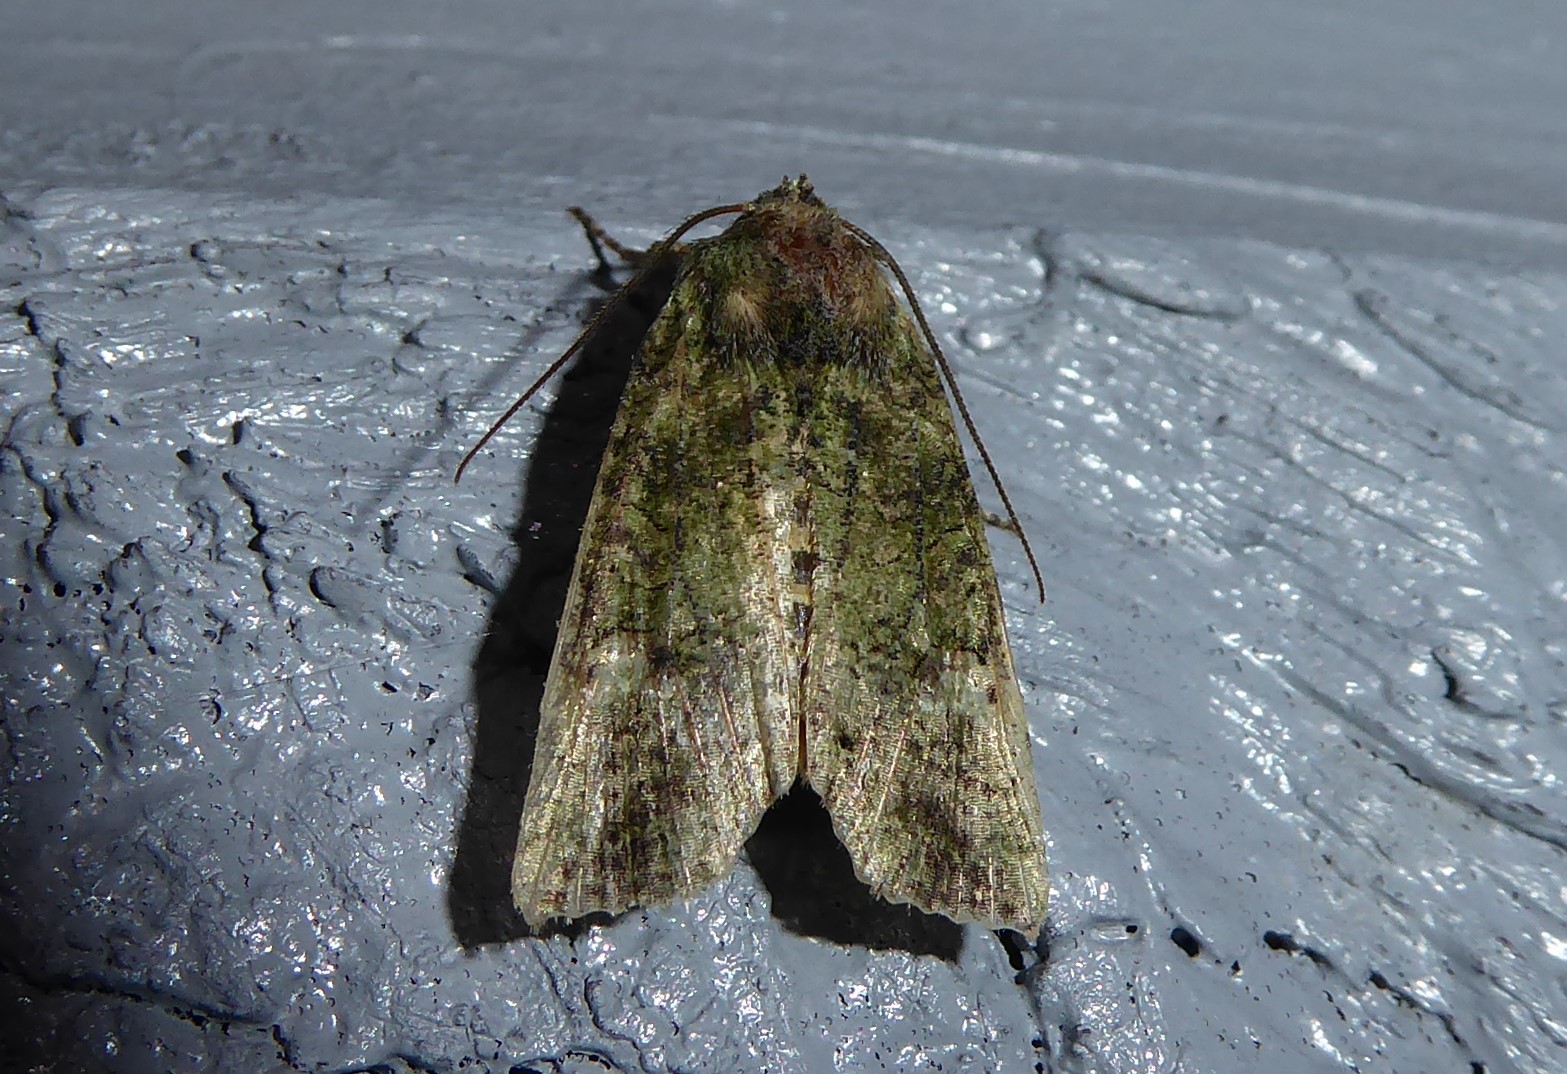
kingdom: Animalia
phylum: Arthropoda
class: Insecta
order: Lepidoptera
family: Noctuidae
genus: Meterana
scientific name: Meterana levis
